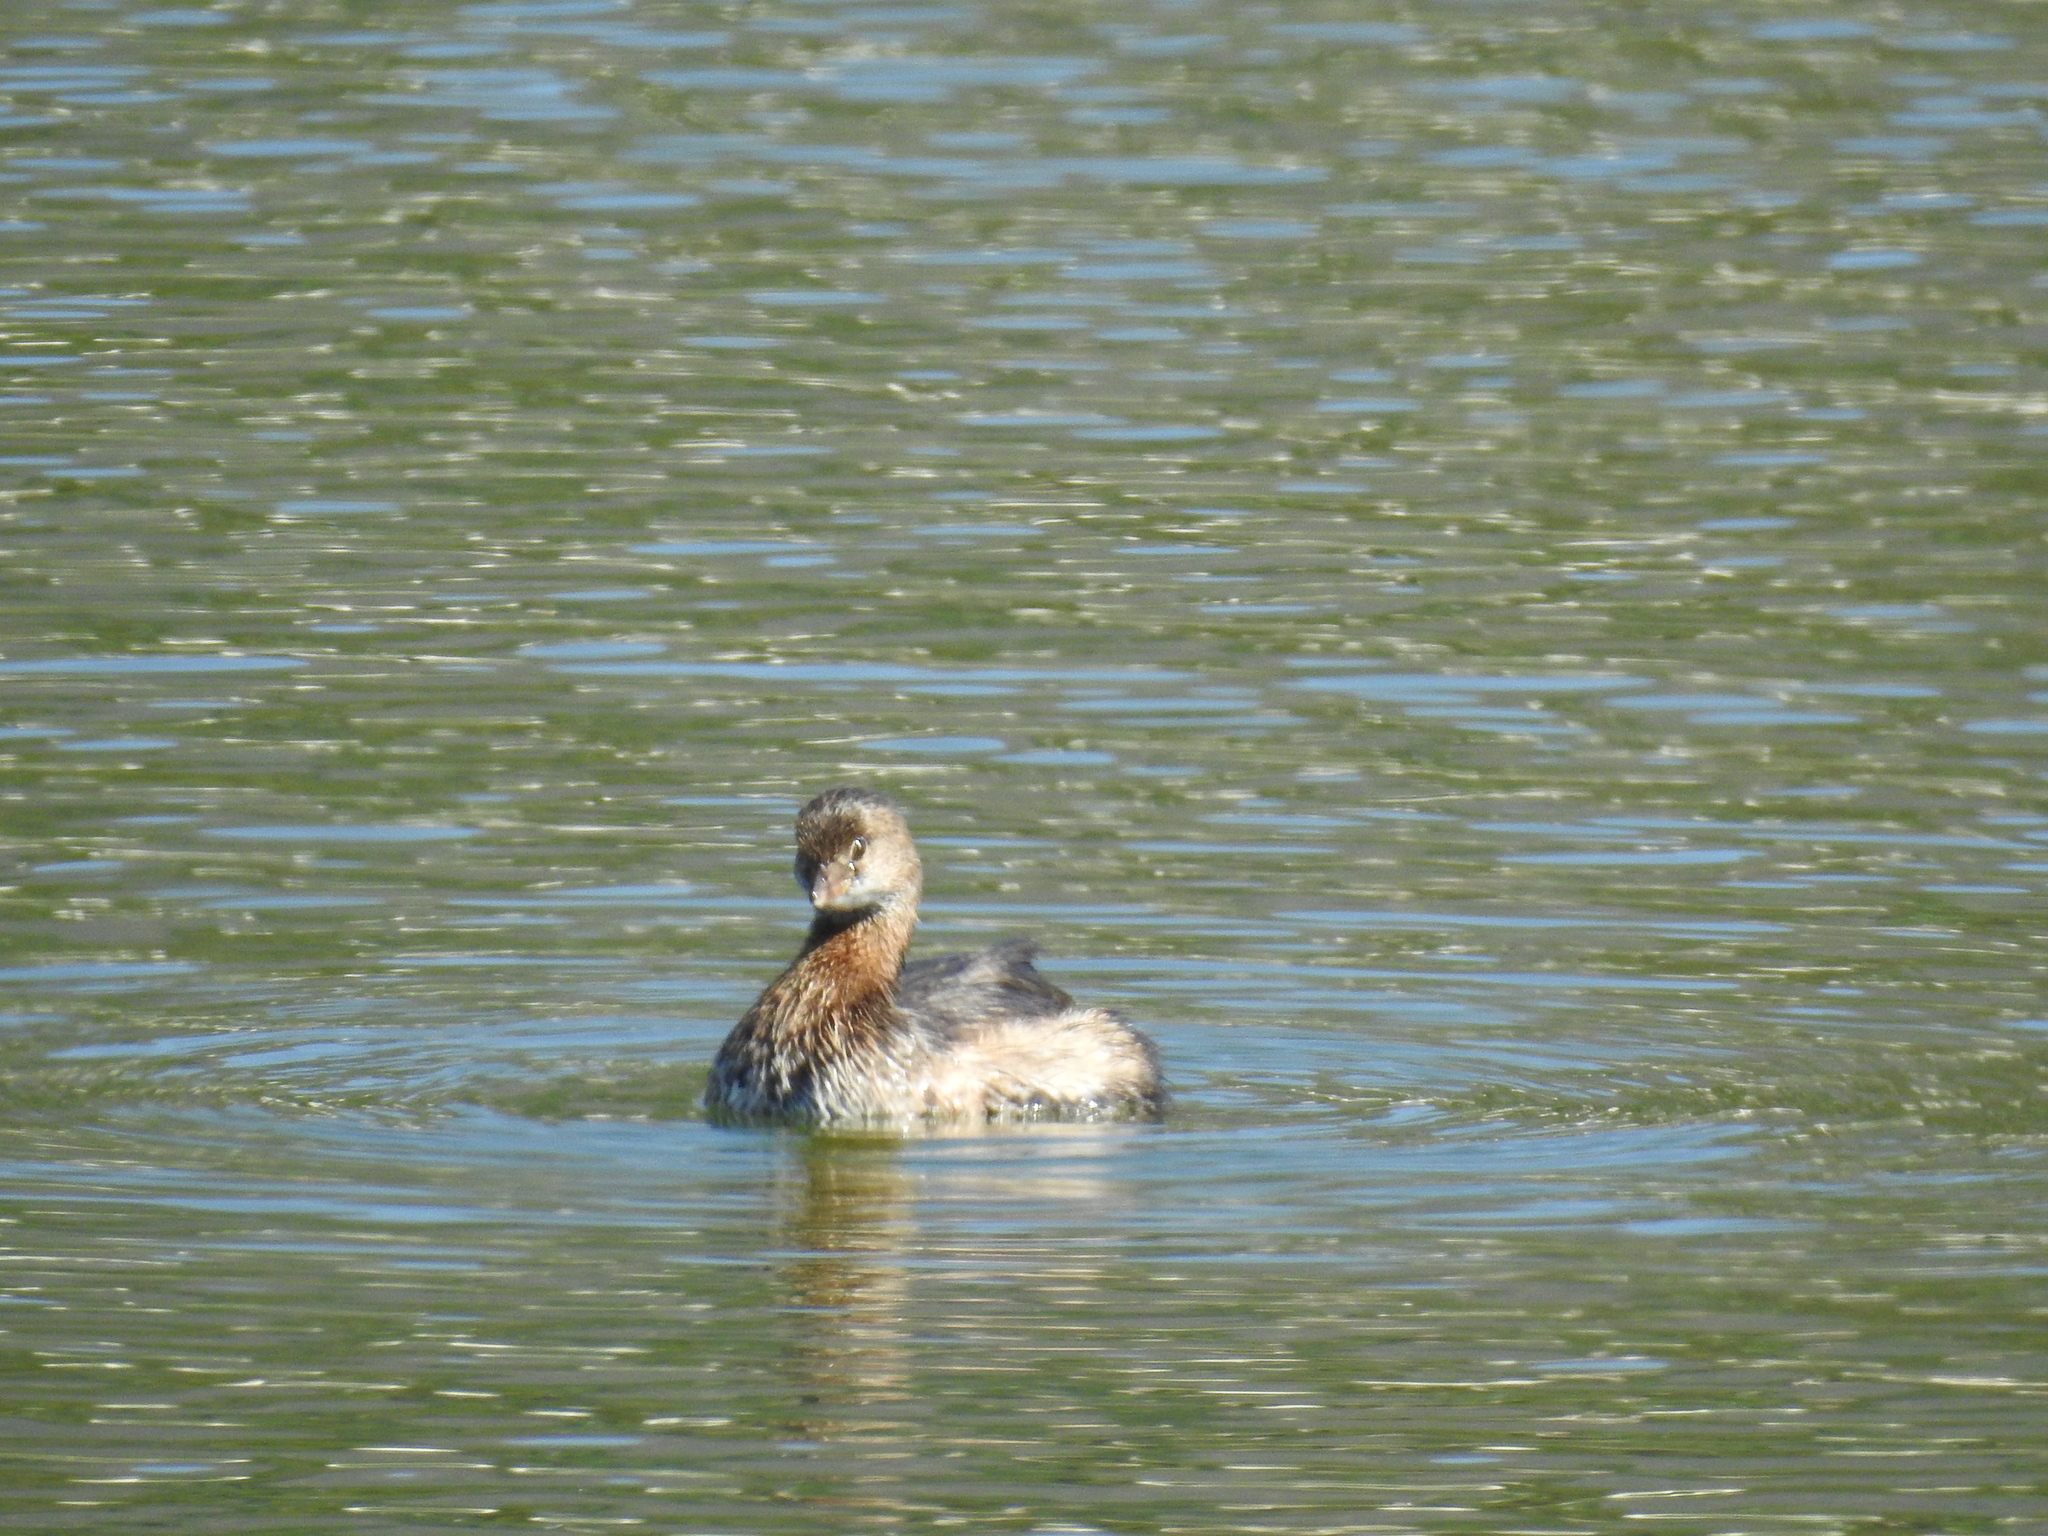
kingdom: Animalia
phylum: Chordata
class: Aves
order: Podicipediformes
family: Podicipedidae
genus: Podilymbus
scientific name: Podilymbus podiceps
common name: Pied-billed grebe
